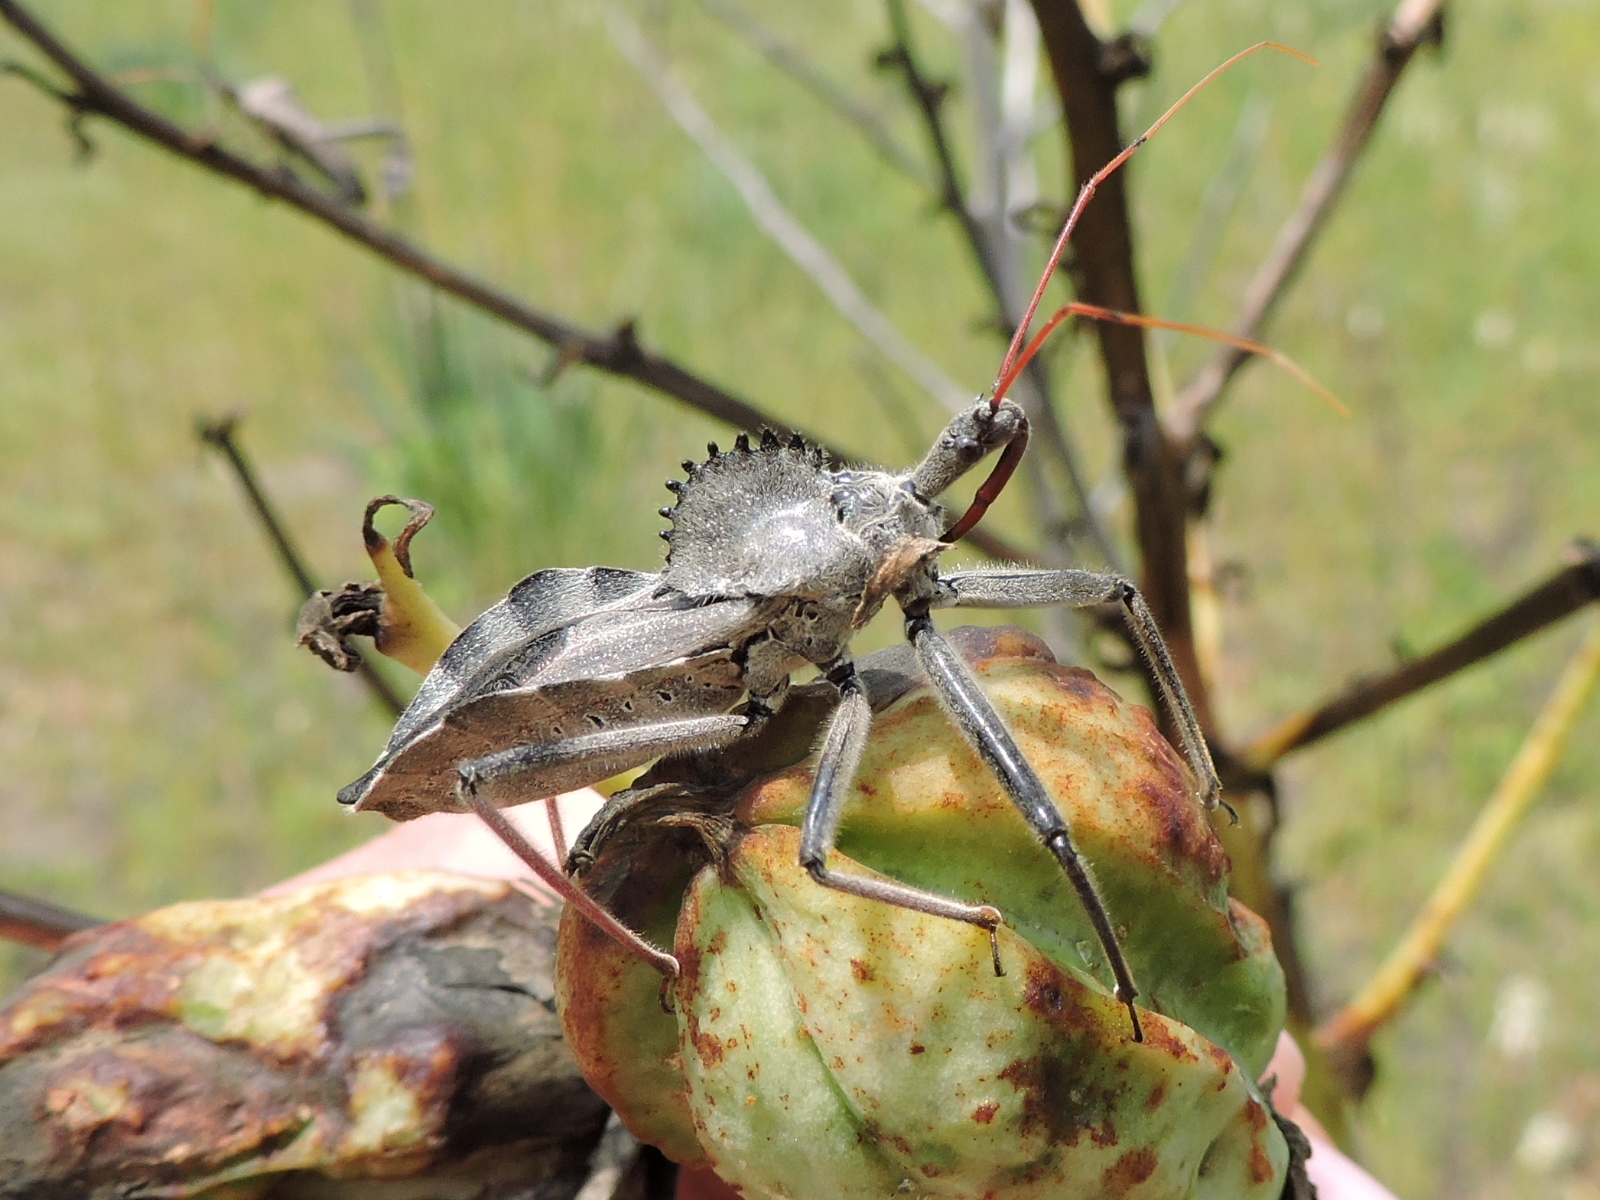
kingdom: Animalia
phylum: Arthropoda
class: Insecta
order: Hemiptera
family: Reduviidae
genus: Arilus
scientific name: Arilus cristatus
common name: North american wheel bug
